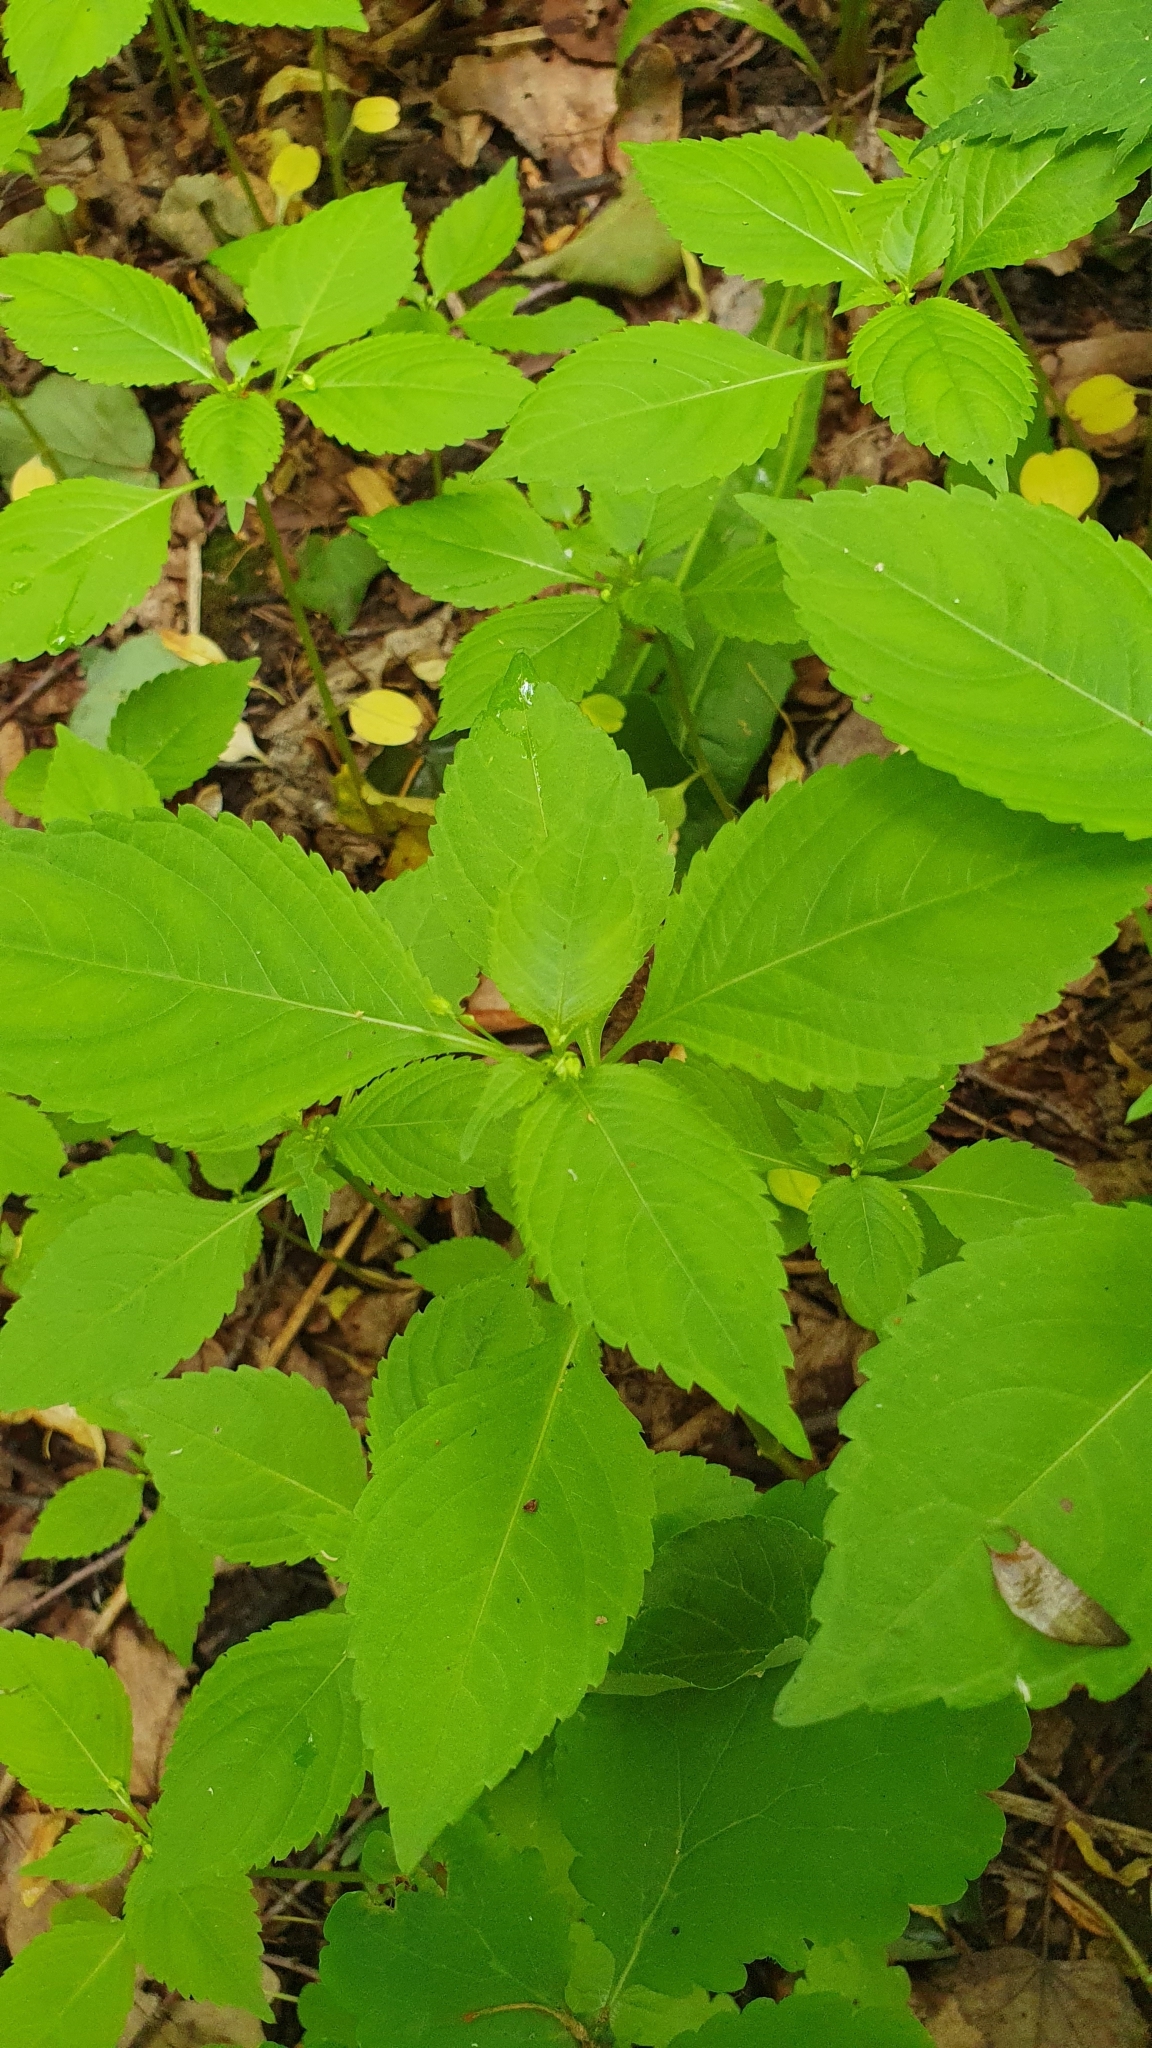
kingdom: Plantae
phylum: Tracheophyta
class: Magnoliopsida
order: Ericales
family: Balsaminaceae
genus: Impatiens
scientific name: Impatiens parviflora
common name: Small balsam
